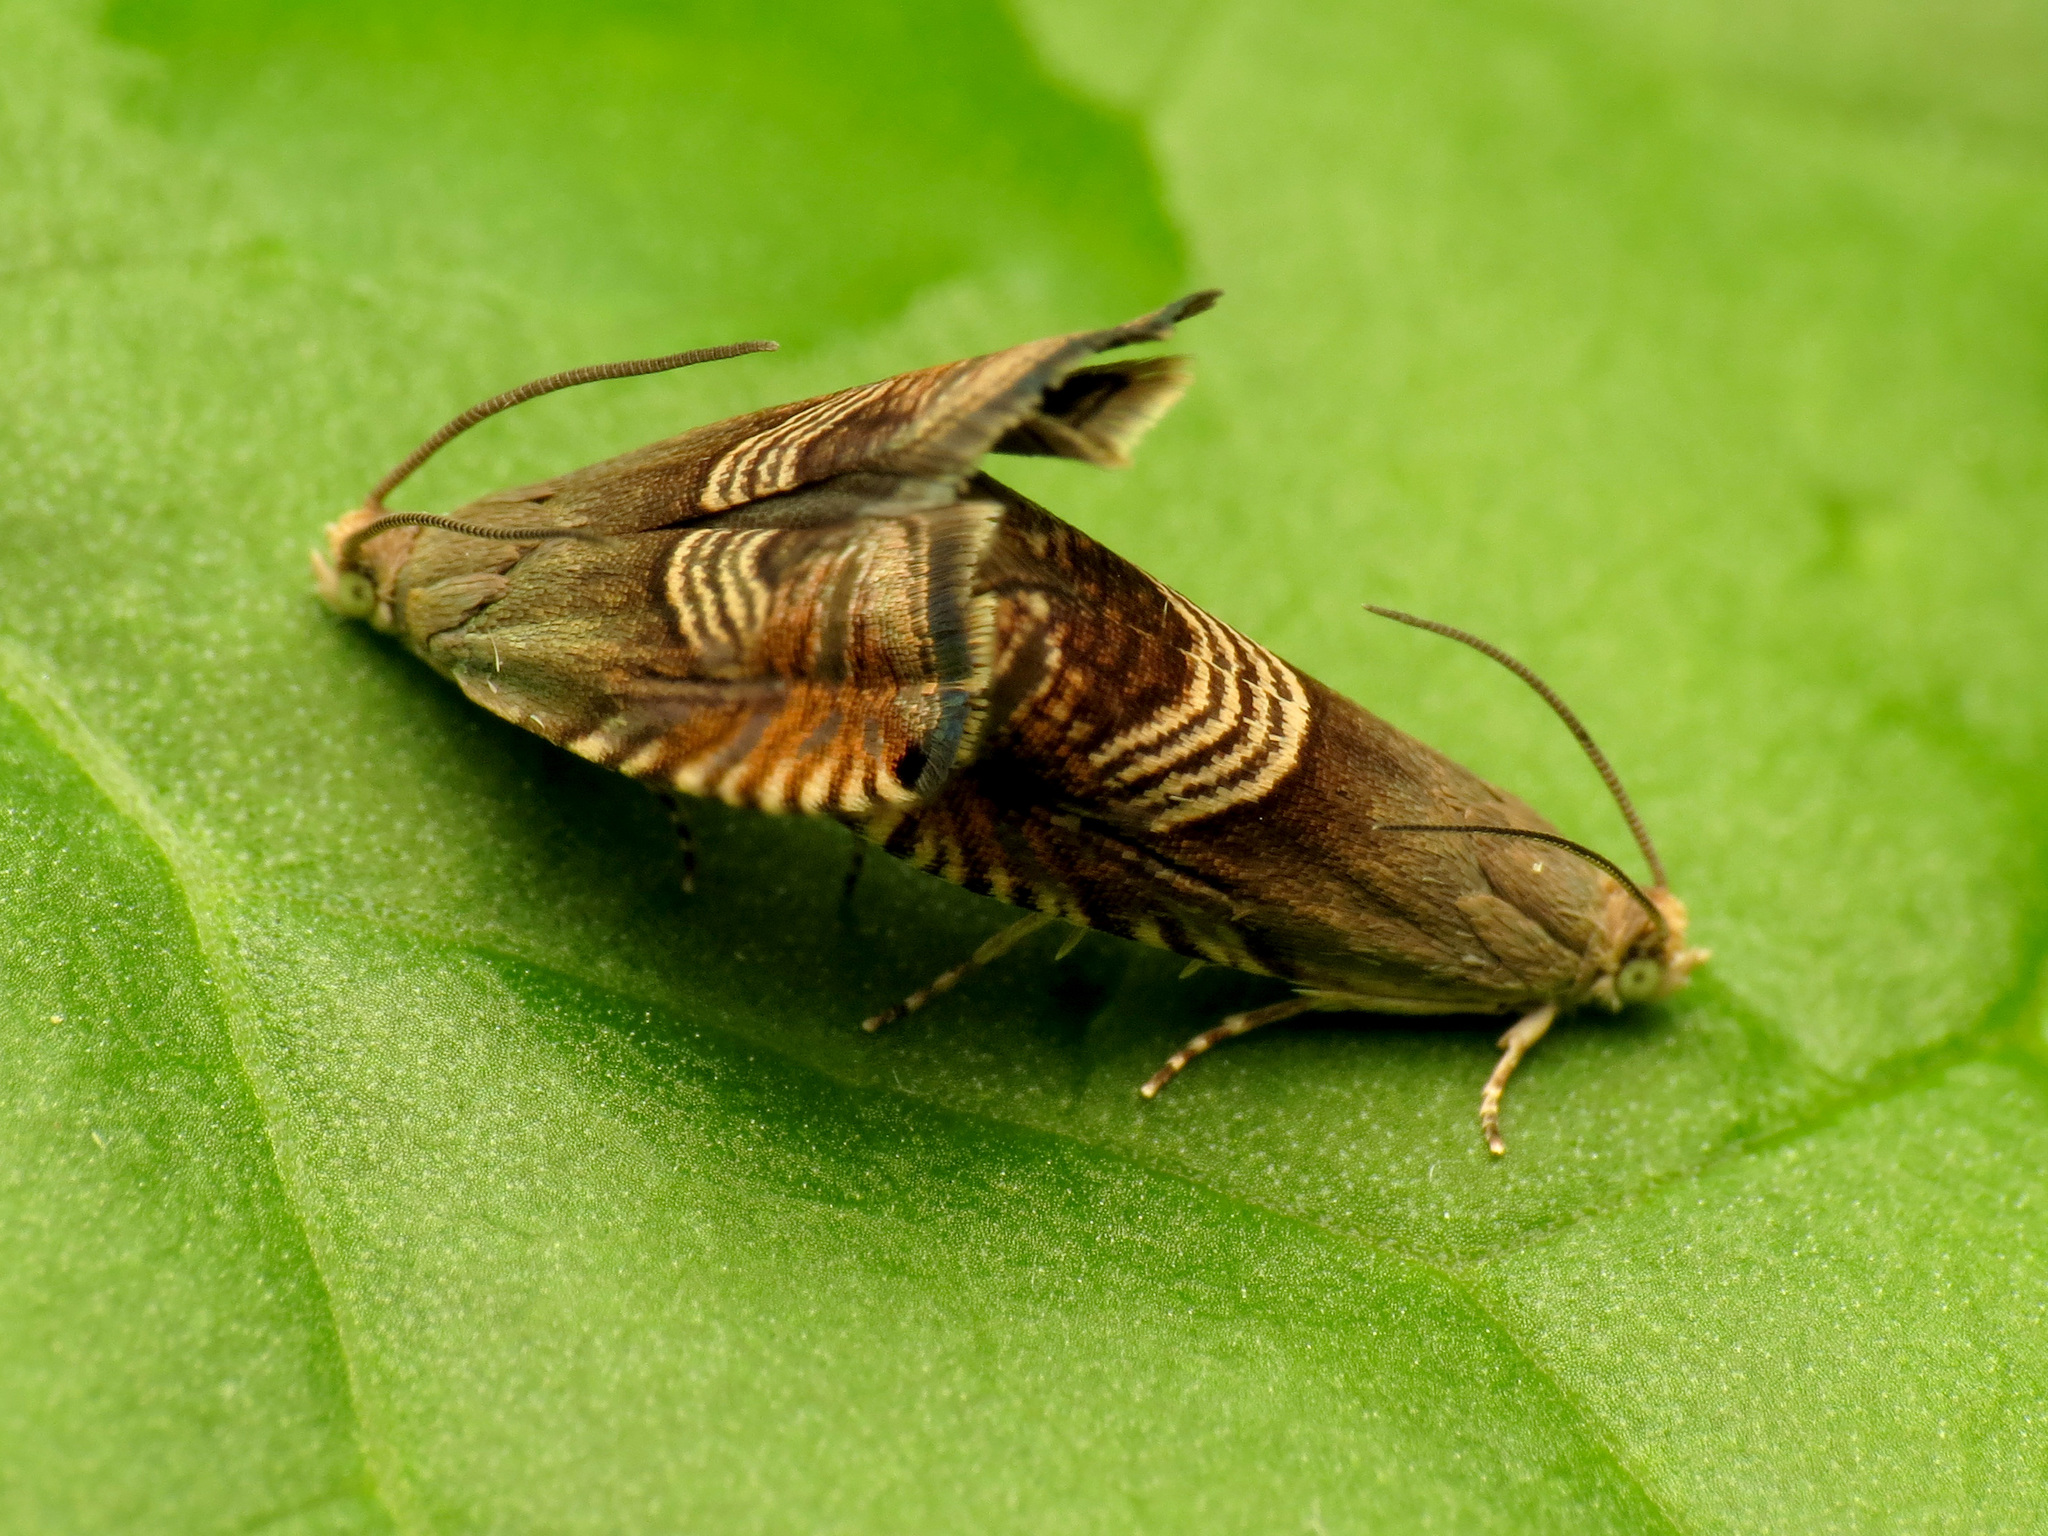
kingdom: Animalia
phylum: Arthropoda
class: Insecta
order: Lepidoptera
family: Tortricidae
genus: Grapholita
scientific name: Grapholita tristrigana
